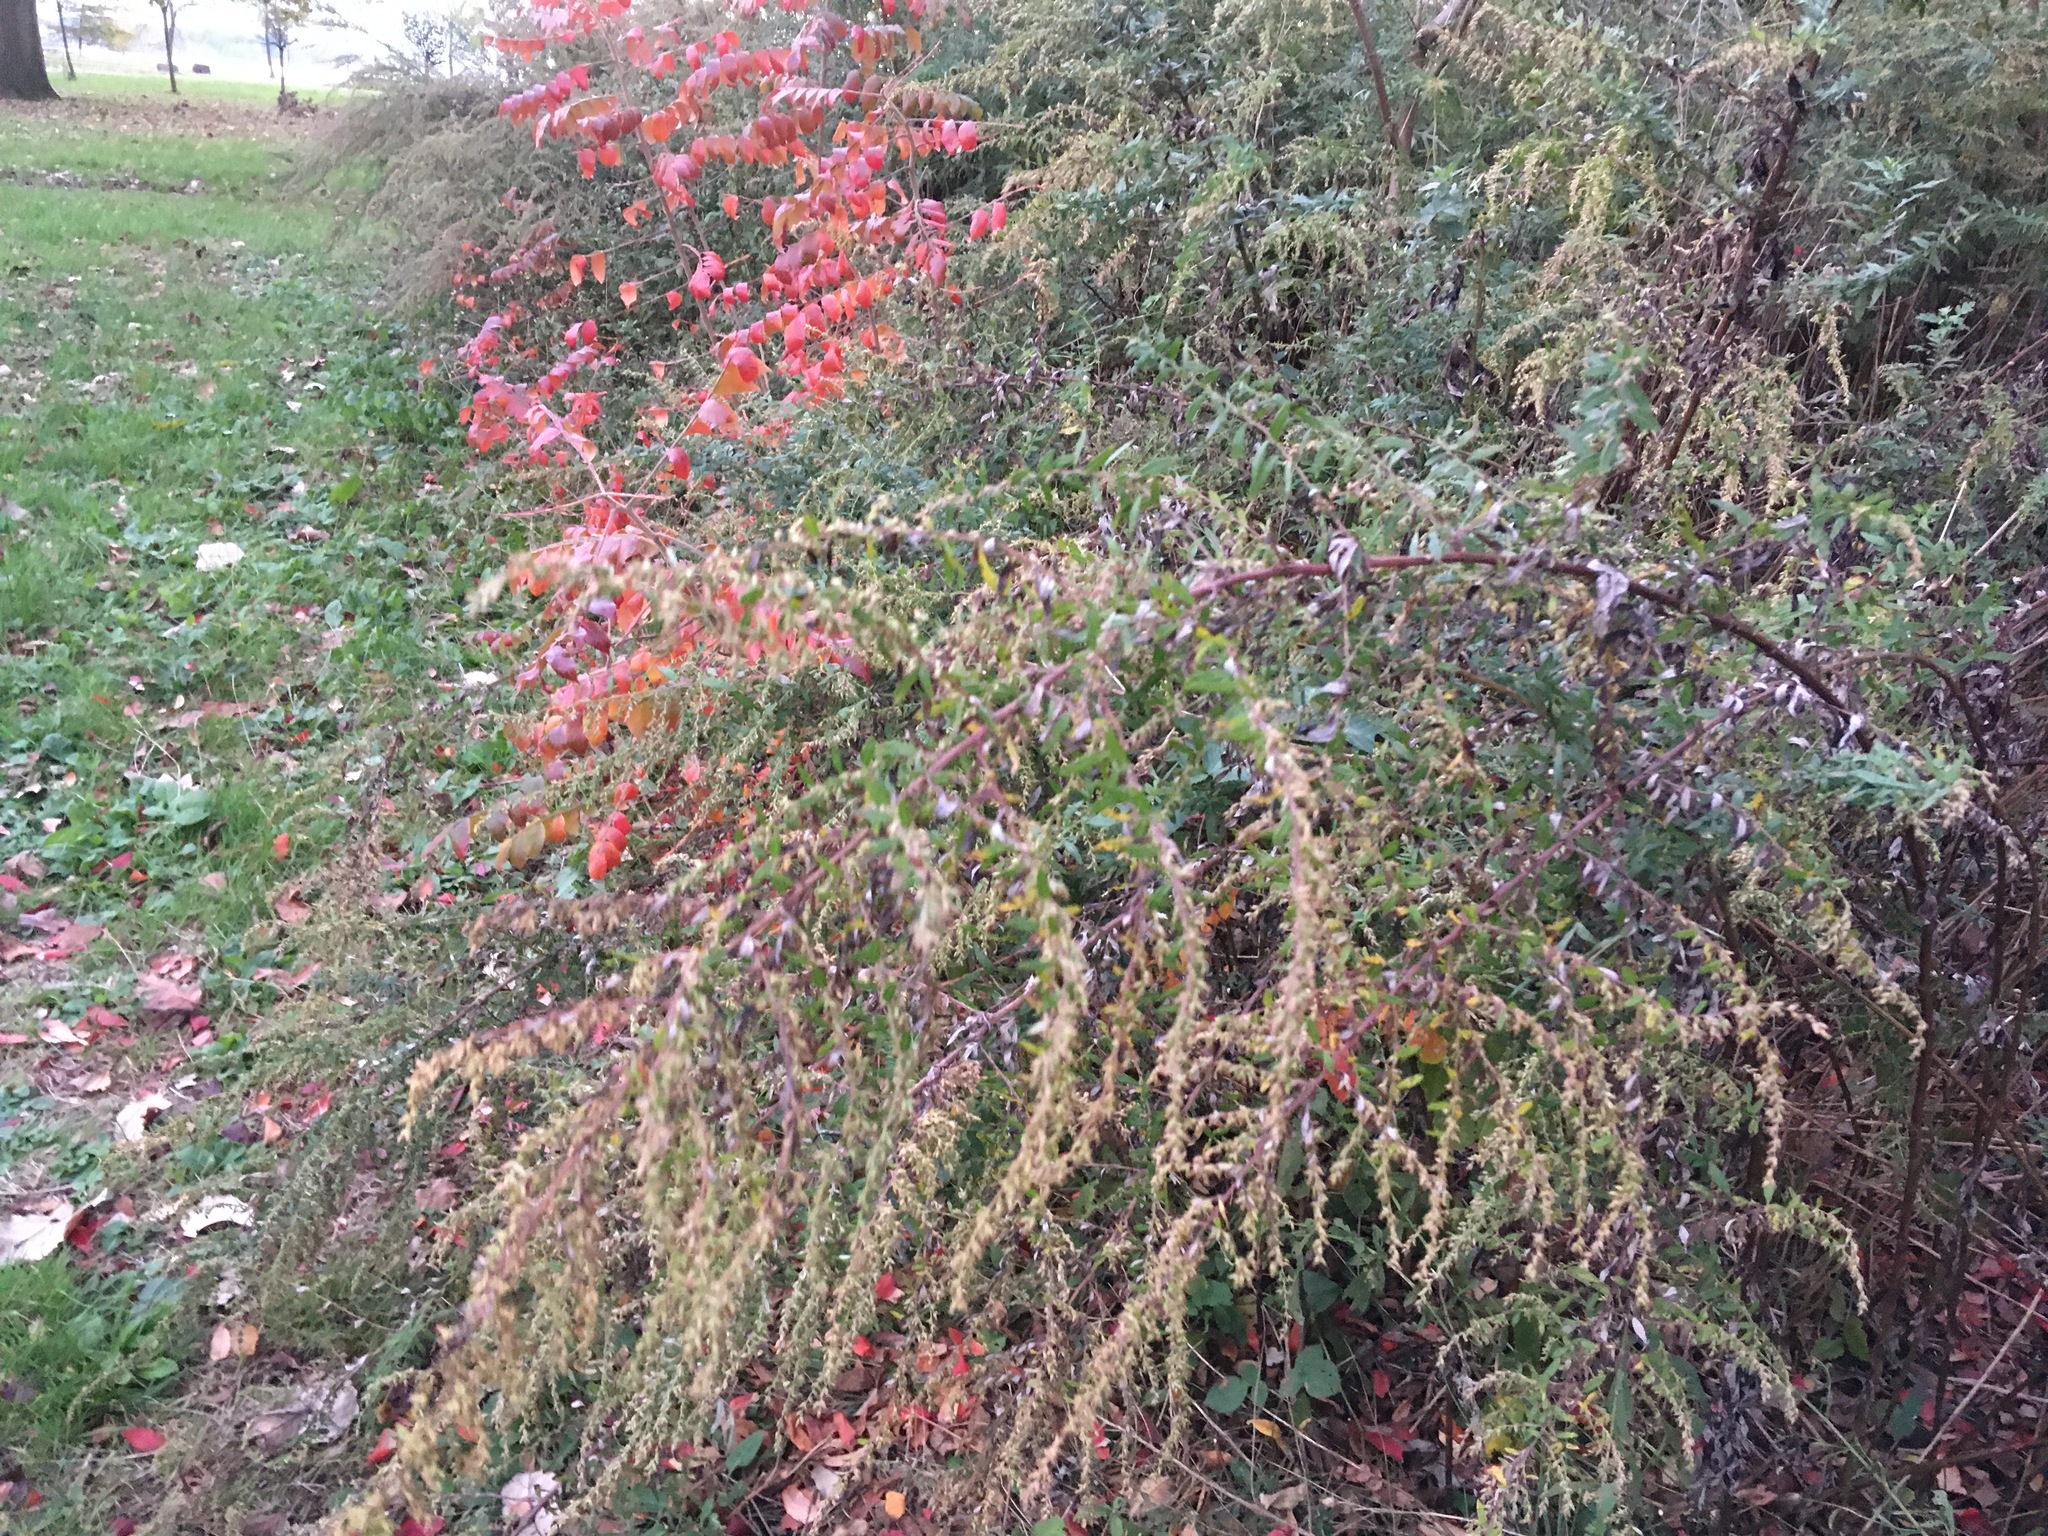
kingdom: Plantae
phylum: Tracheophyta
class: Magnoliopsida
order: Asterales
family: Asteraceae
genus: Artemisia
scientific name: Artemisia vulgaris
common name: Mugwort
